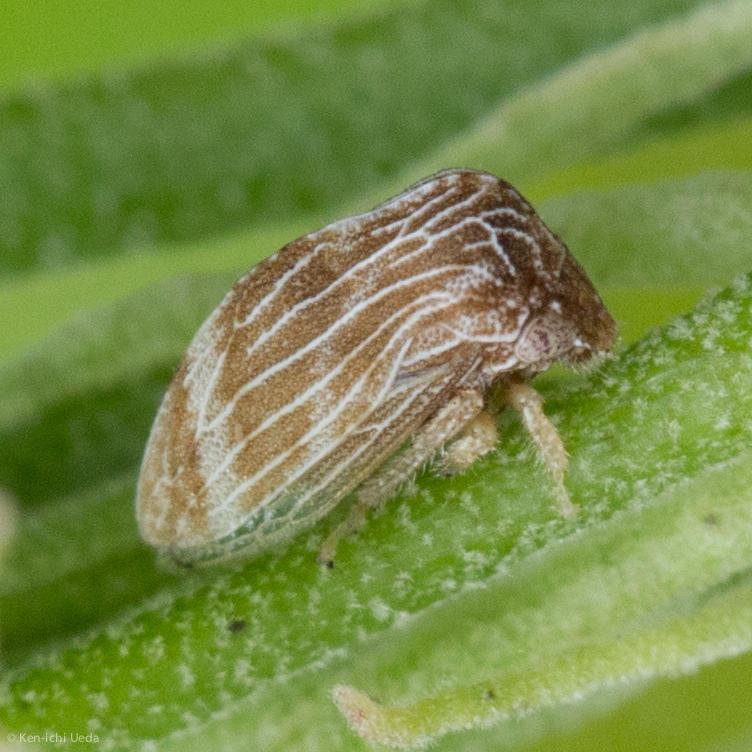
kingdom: Animalia
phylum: Arthropoda
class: Insecta
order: Hemiptera
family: Membracidae
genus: Publilia
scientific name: Publilia erecta
